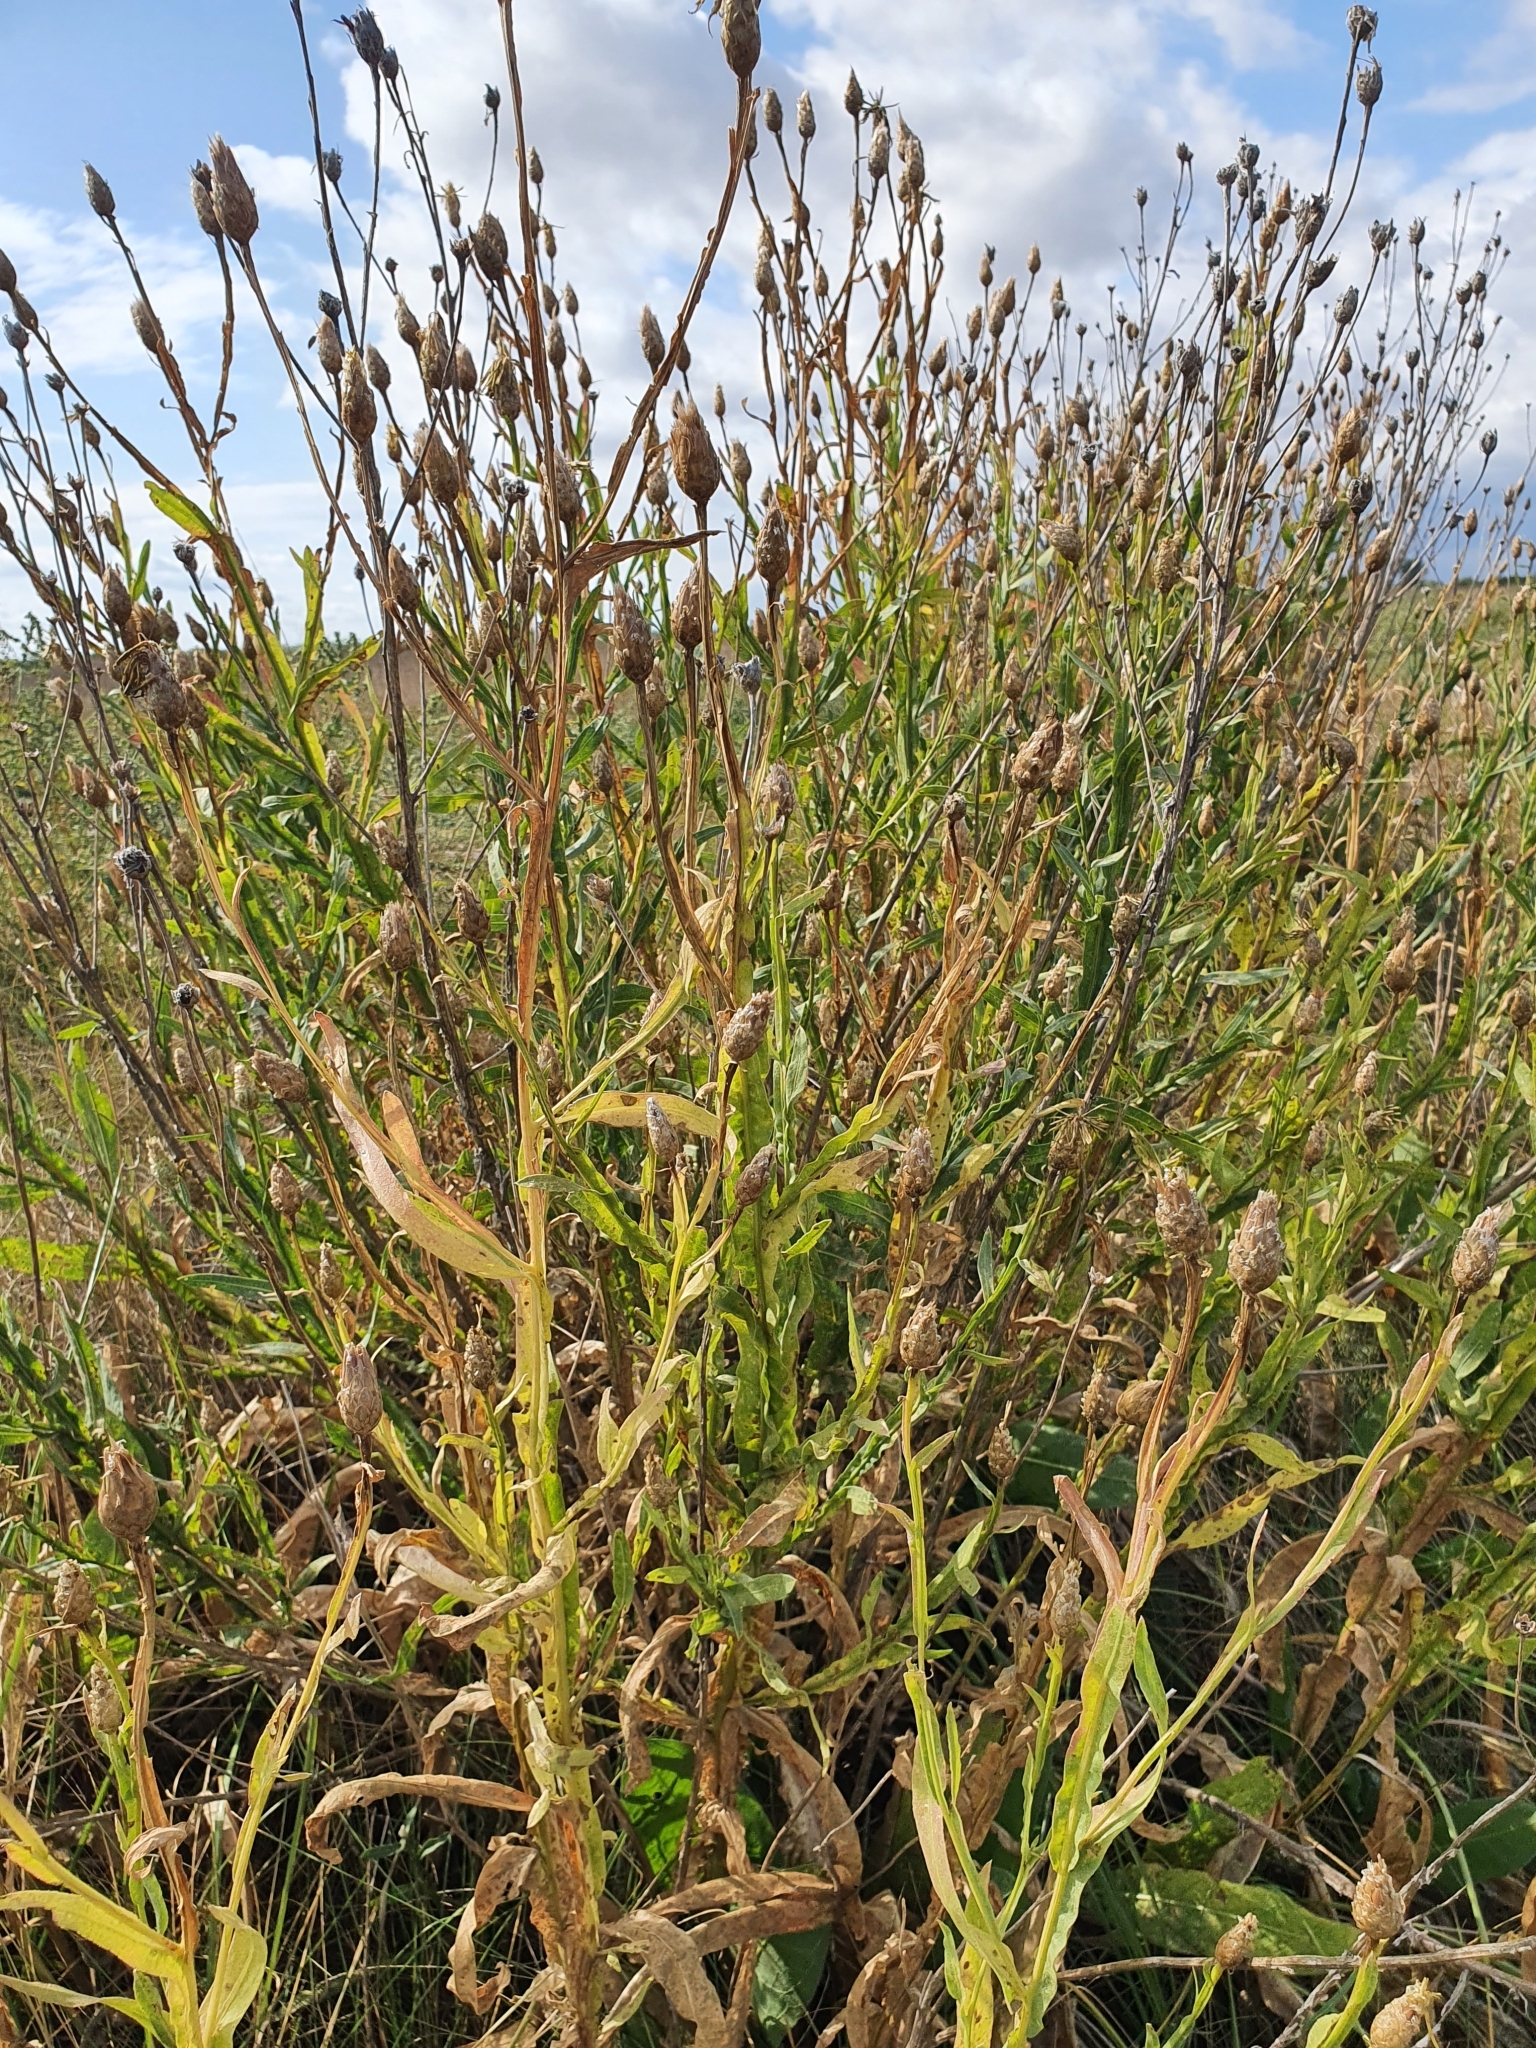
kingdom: Plantae
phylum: Tracheophyta
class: Magnoliopsida
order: Asterales
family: Asteraceae
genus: Centaurea
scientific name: Centaurea glastifolia
